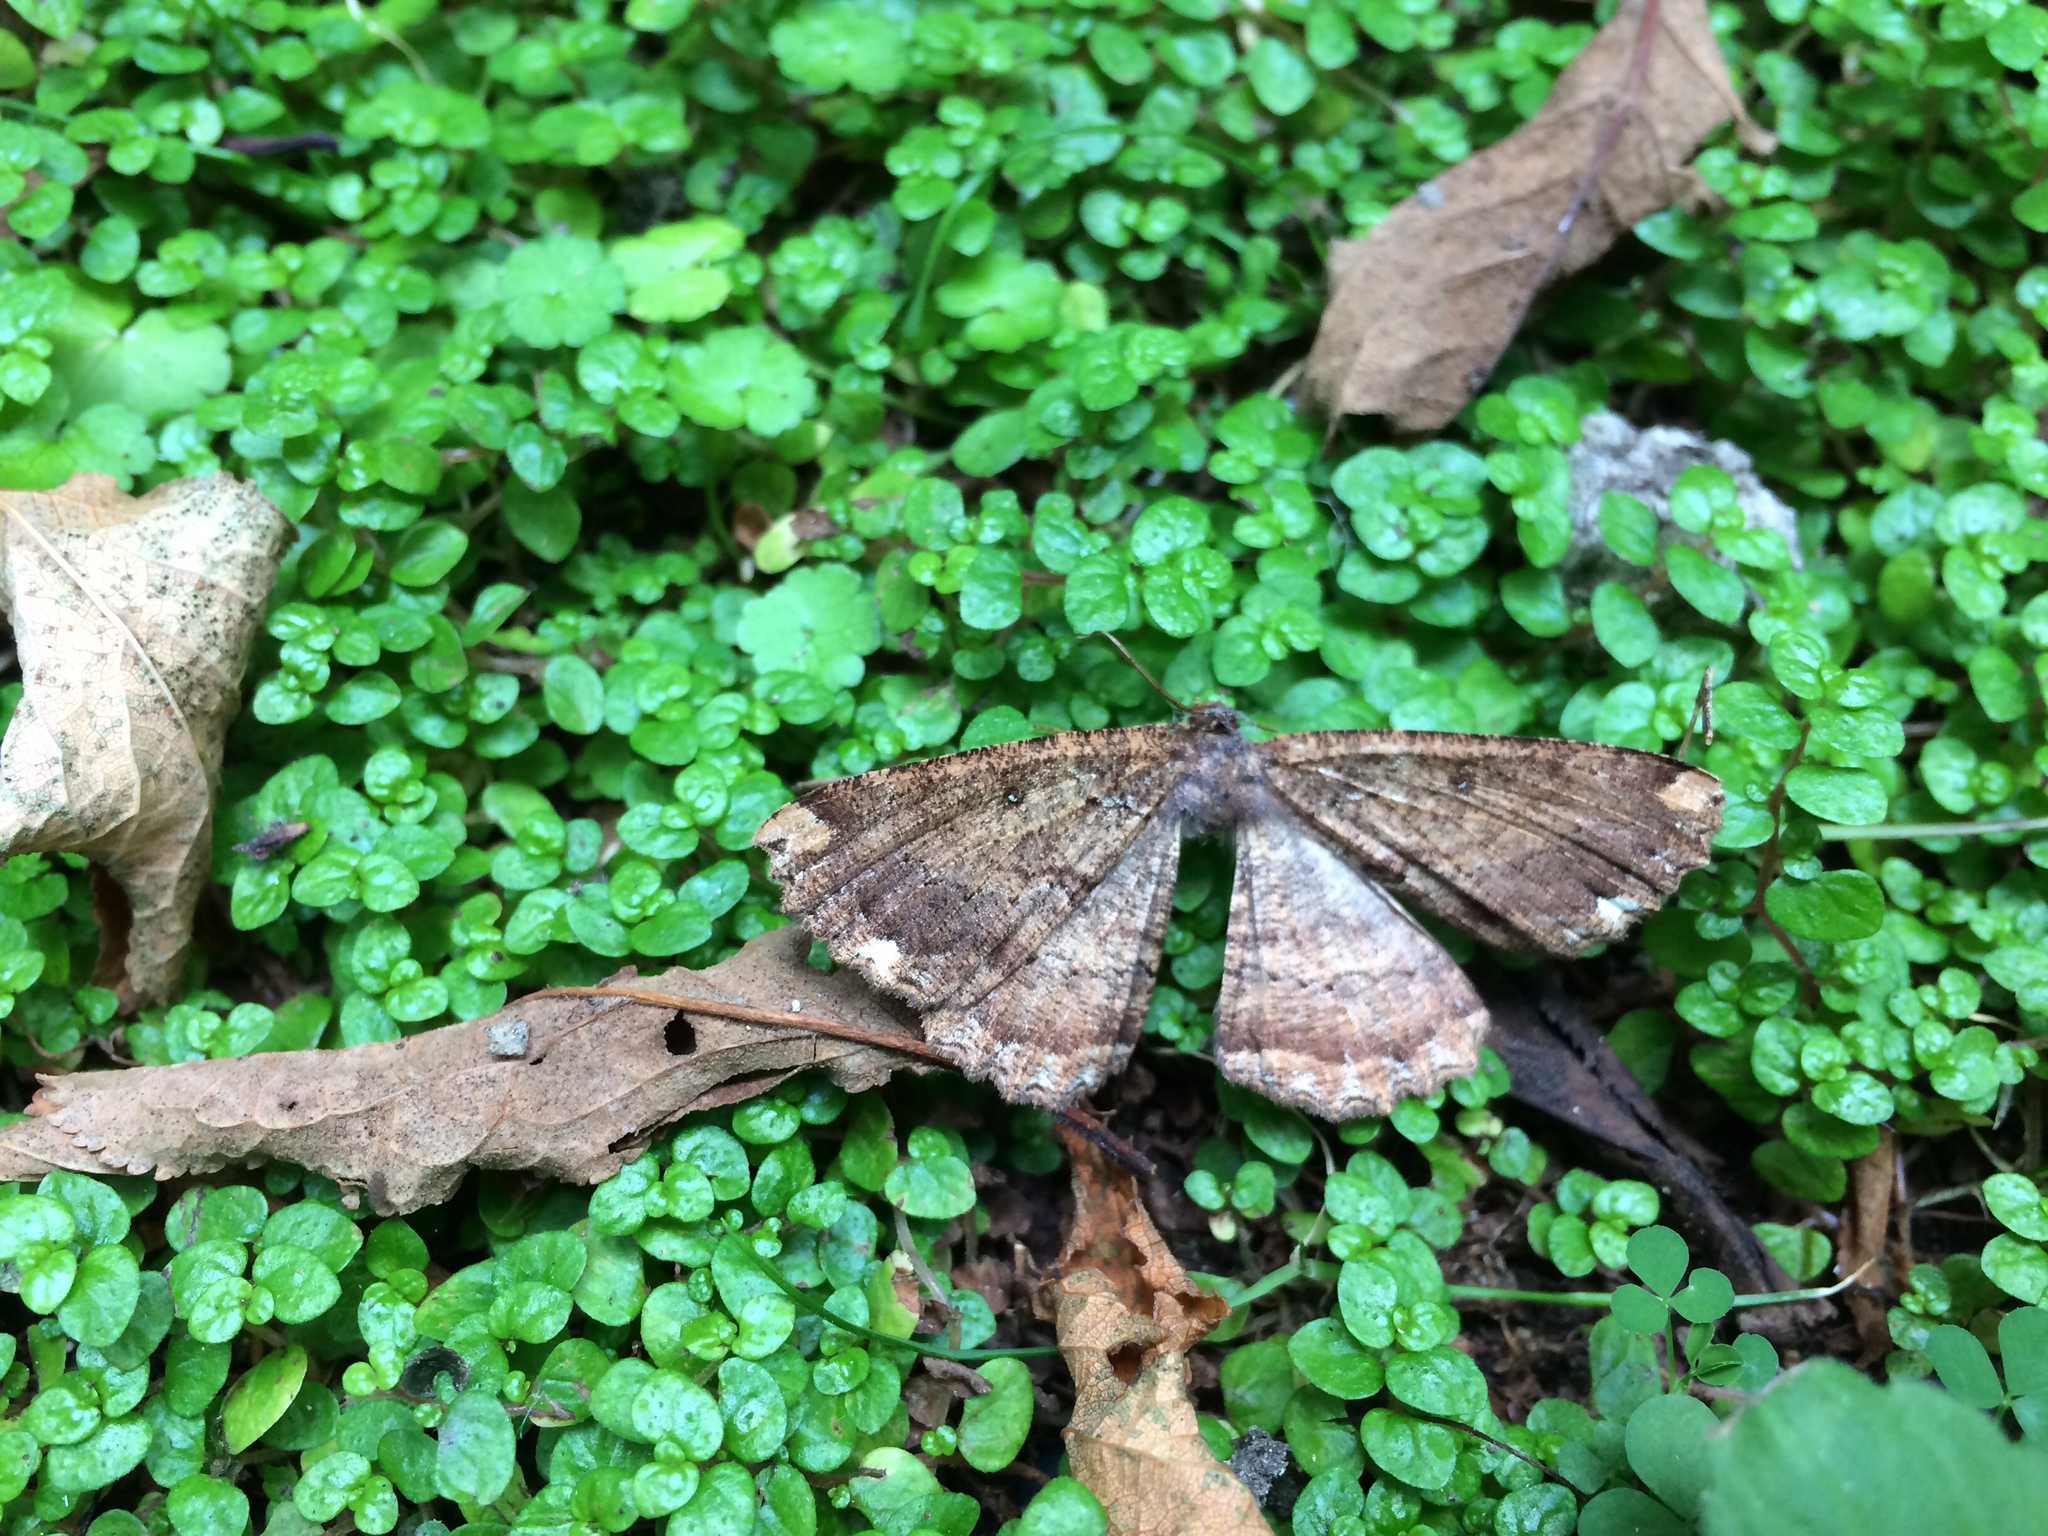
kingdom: Animalia
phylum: Arthropoda
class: Insecta
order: Lepidoptera
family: Geometridae
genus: Gellonia
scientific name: Gellonia dejectaria
